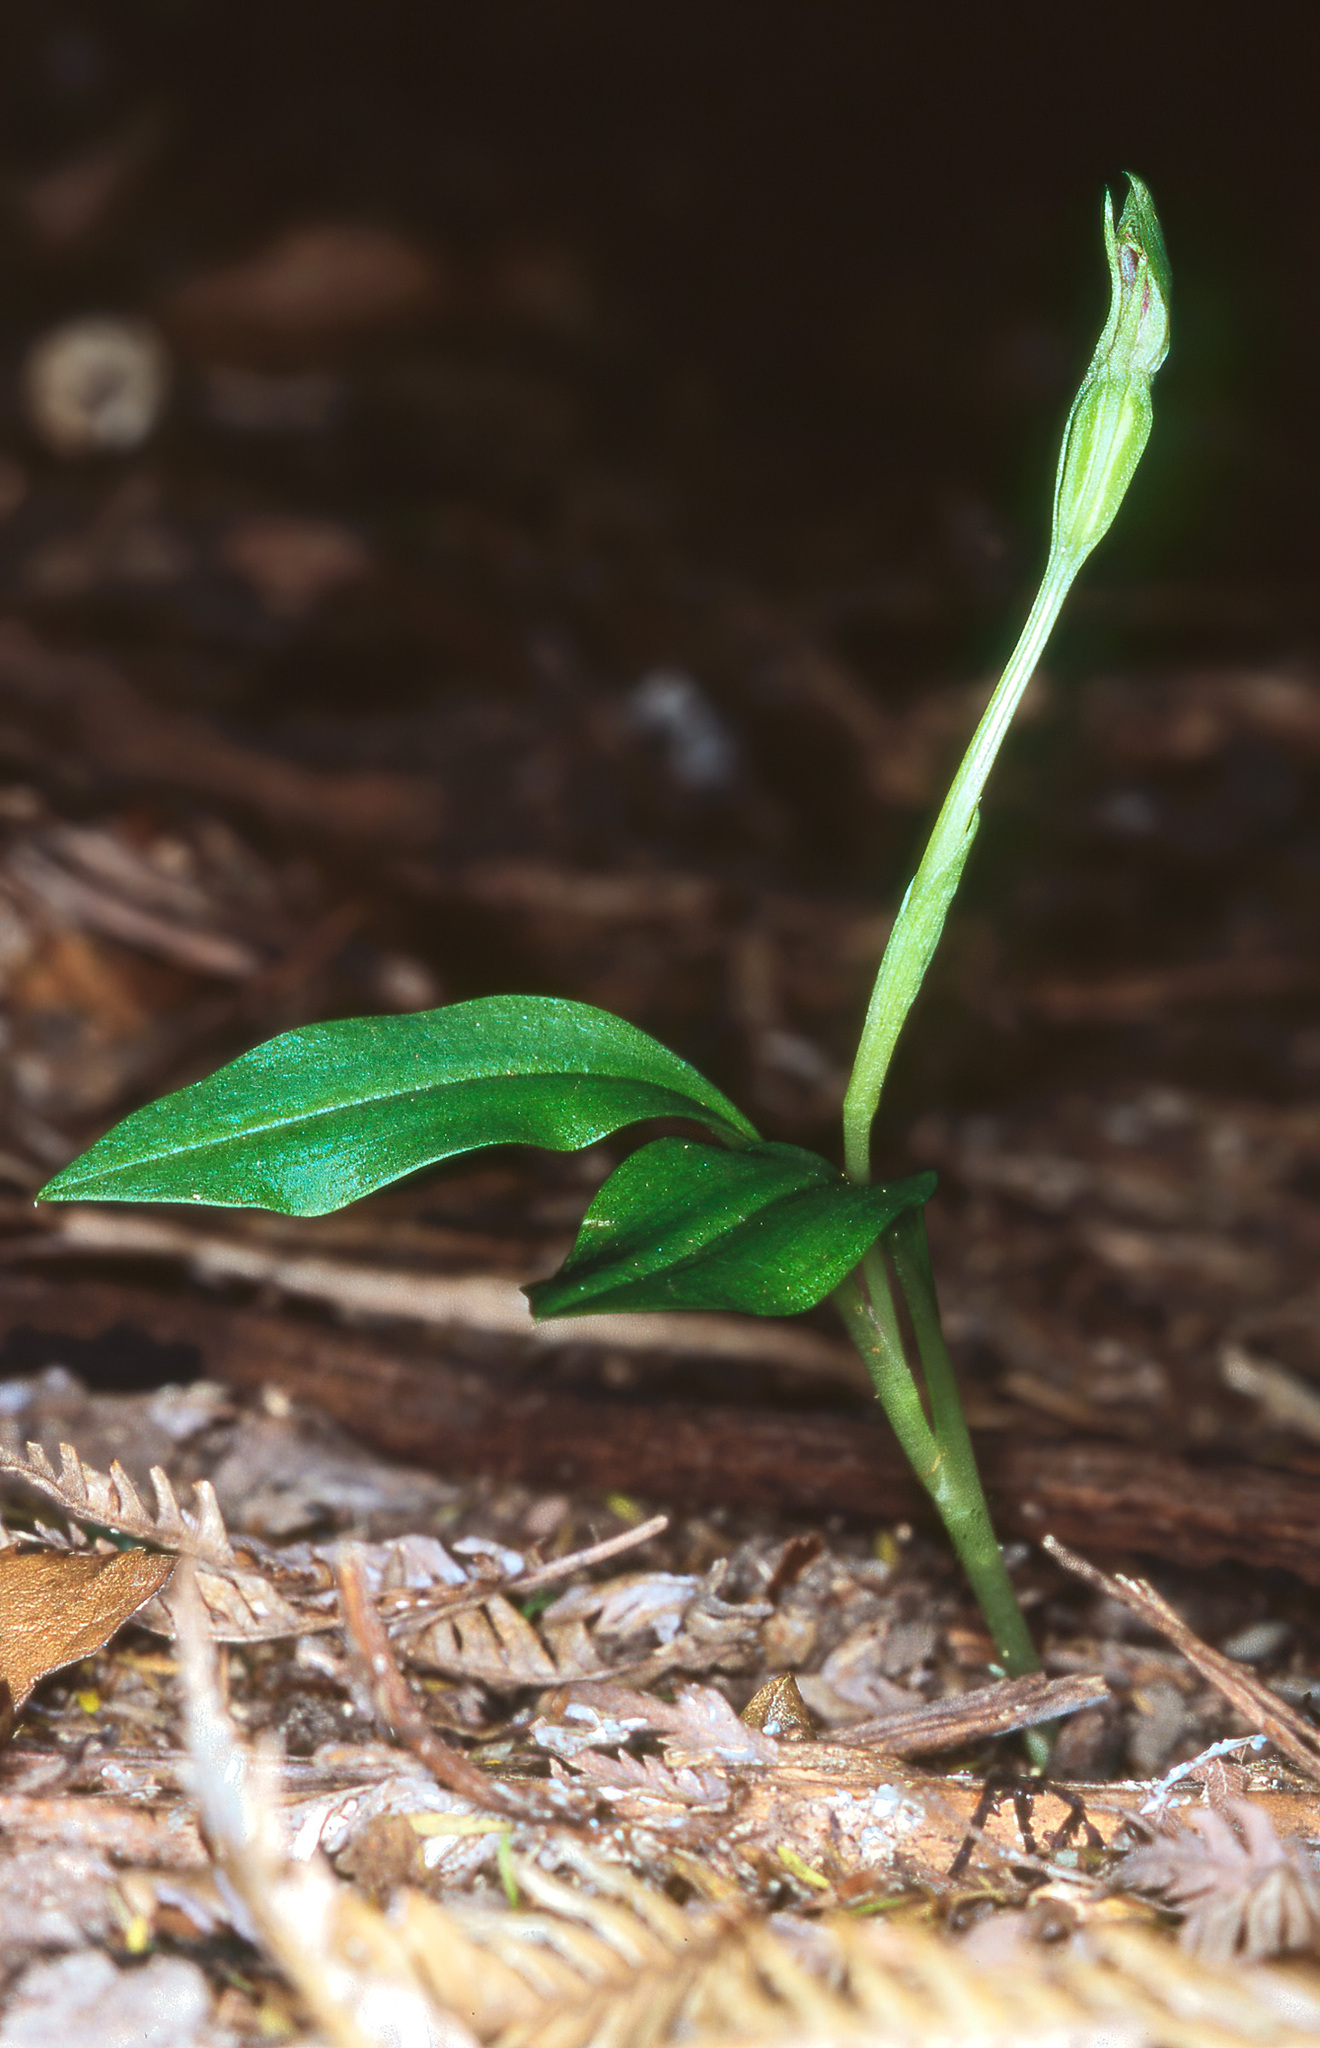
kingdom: Plantae
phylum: Tracheophyta
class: Liliopsida
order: Asparagales
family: Orchidaceae
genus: Chiloglottis
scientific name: Chiloglottis cornuta
